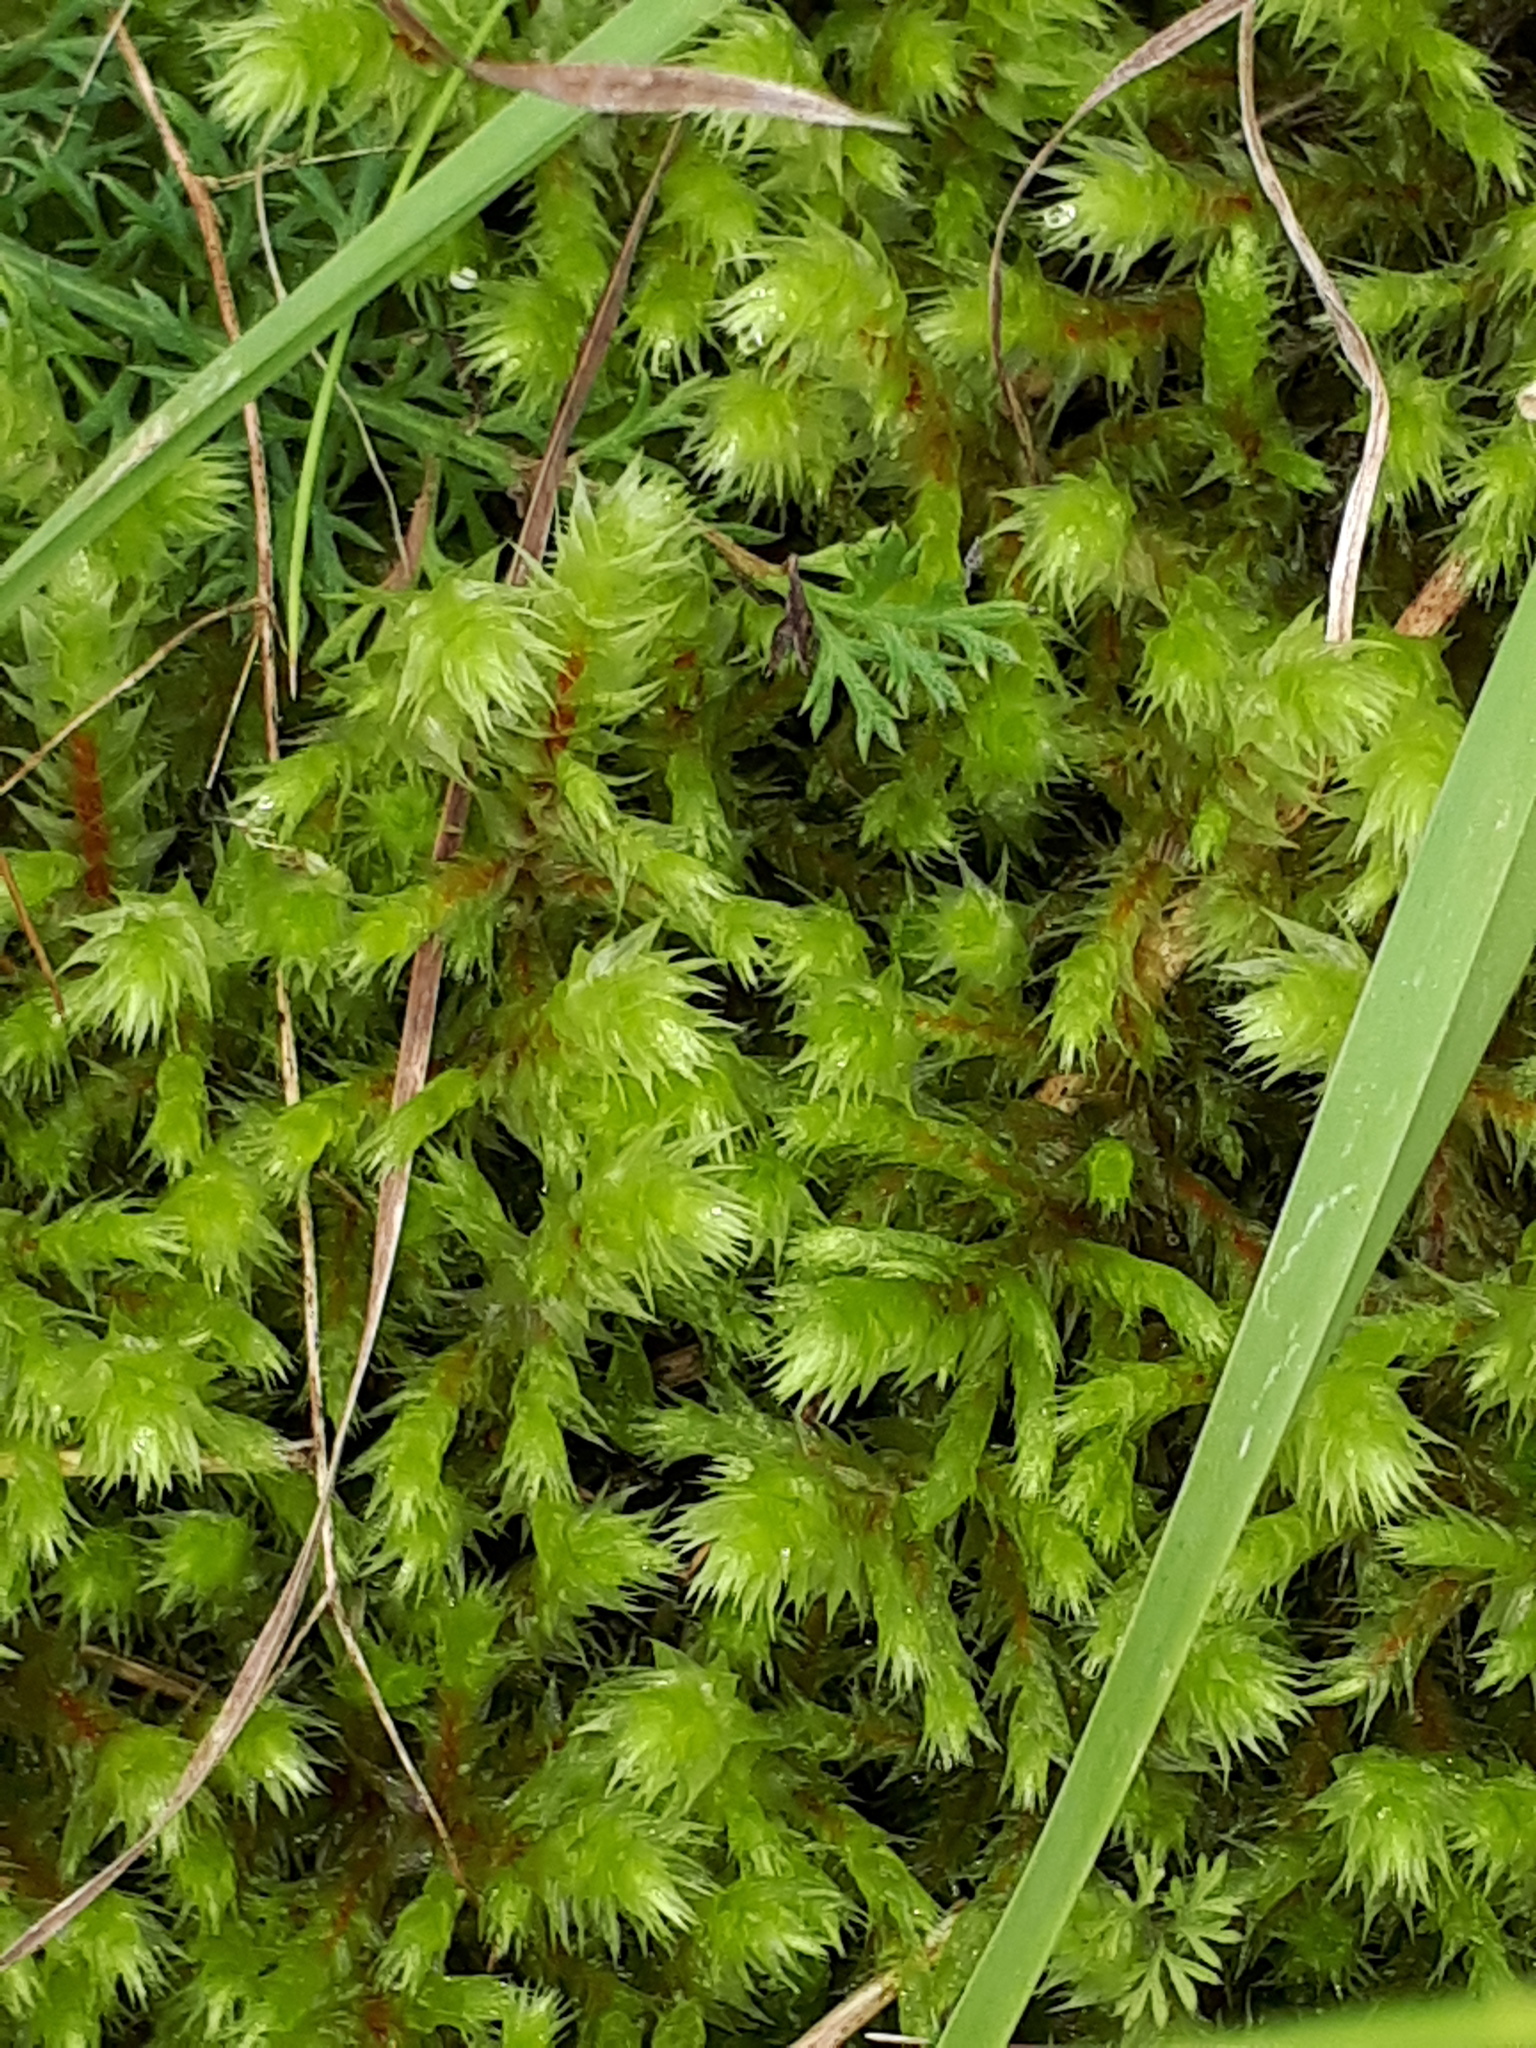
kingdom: Plantae
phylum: Bryophyta
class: Bryopsida
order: Hypnales
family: Hylocomiaceae
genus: Hylocomiadelphus
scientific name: Hylocomiadelphus triquetrus
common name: Rough goose neck moss
